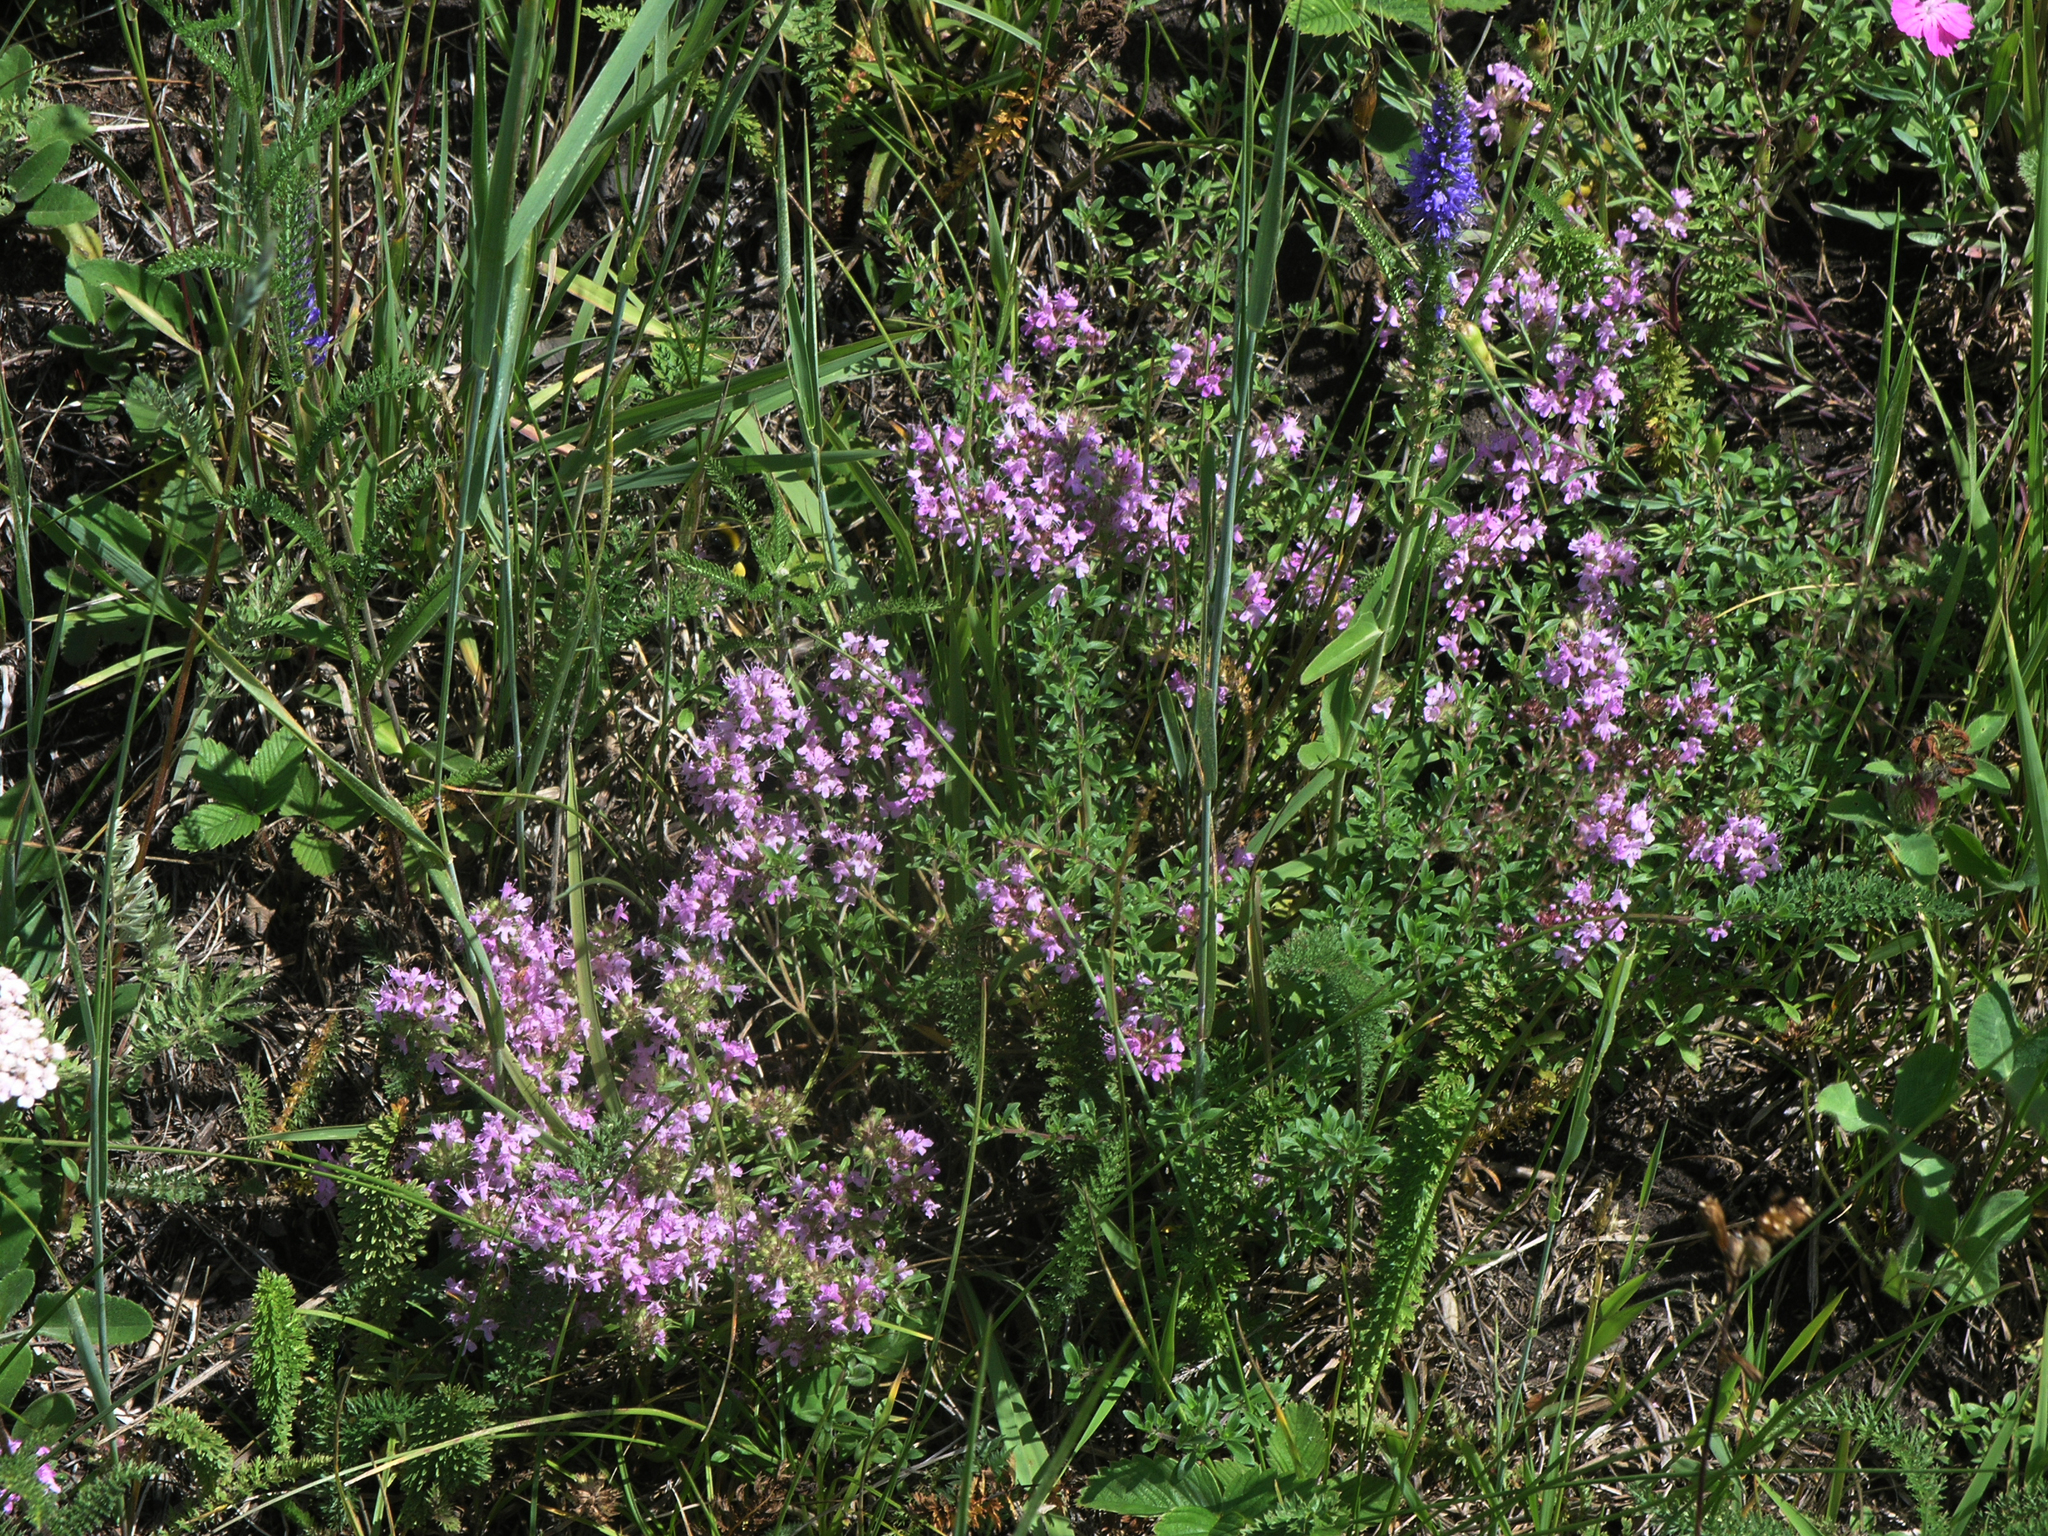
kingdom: Plantae
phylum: Tracheophyta
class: Magnoliopsida
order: Lamiales
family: Lamiaceae
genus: Thymus
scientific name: Thymus guberlinensis
